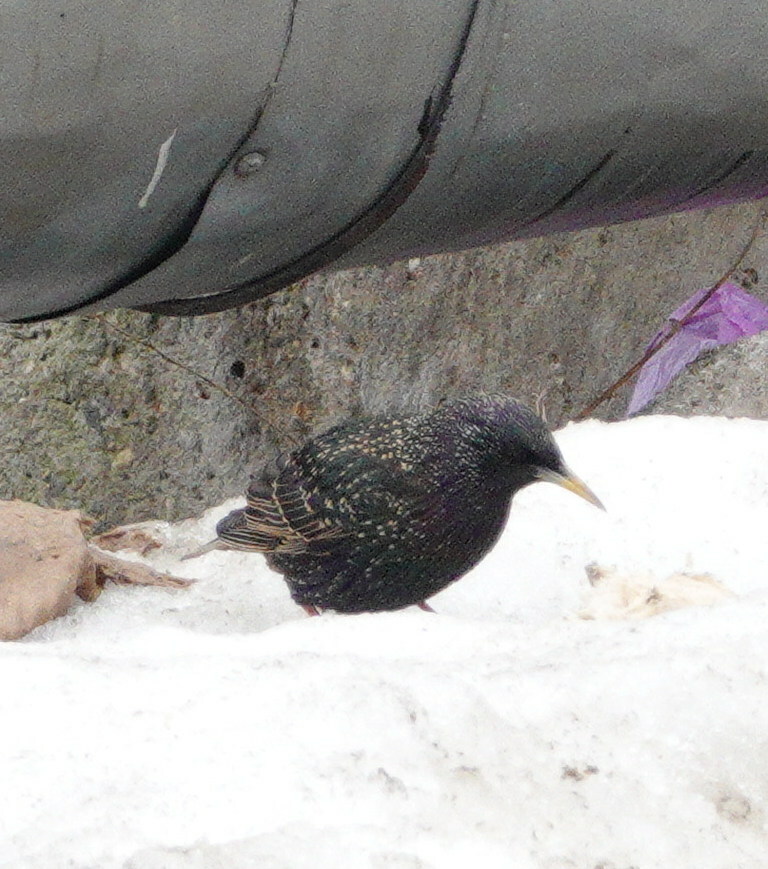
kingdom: Animalia
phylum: Chordata
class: Aves
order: Passeriformes
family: Sturnidae
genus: Sturnus
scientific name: Sturnus vulgaris
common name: Common starling
